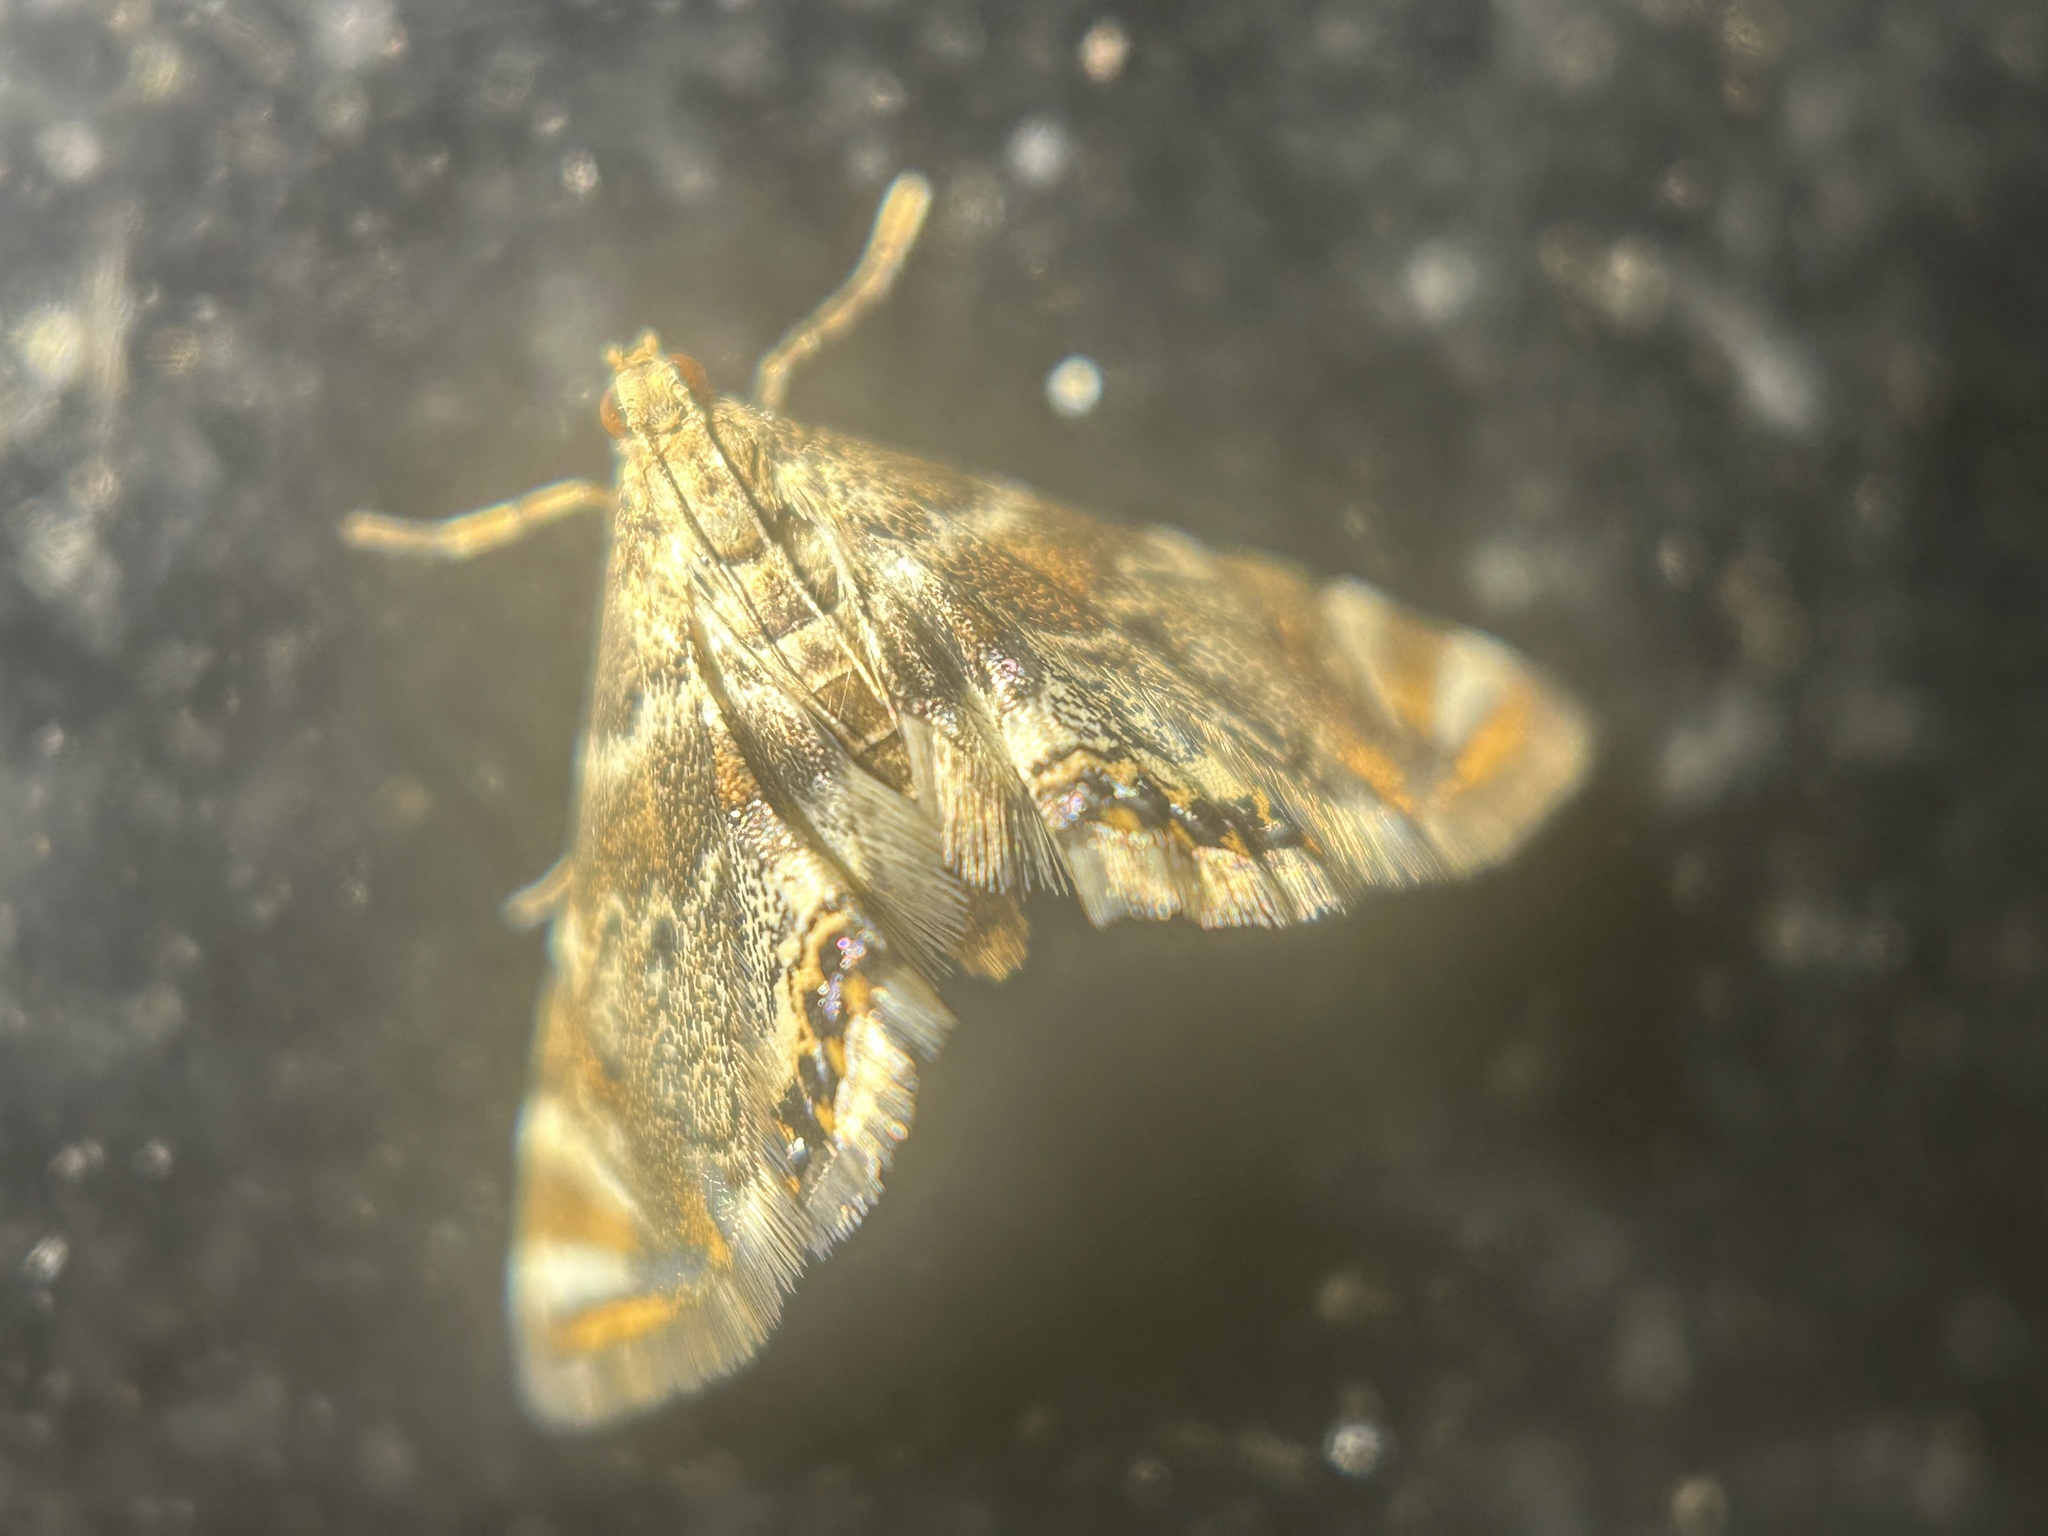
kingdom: Animalia
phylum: Arthropoda
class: Insecta
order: Lepidoptera
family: Crambidae
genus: Petrophila
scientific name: Petrophila fulicalis
